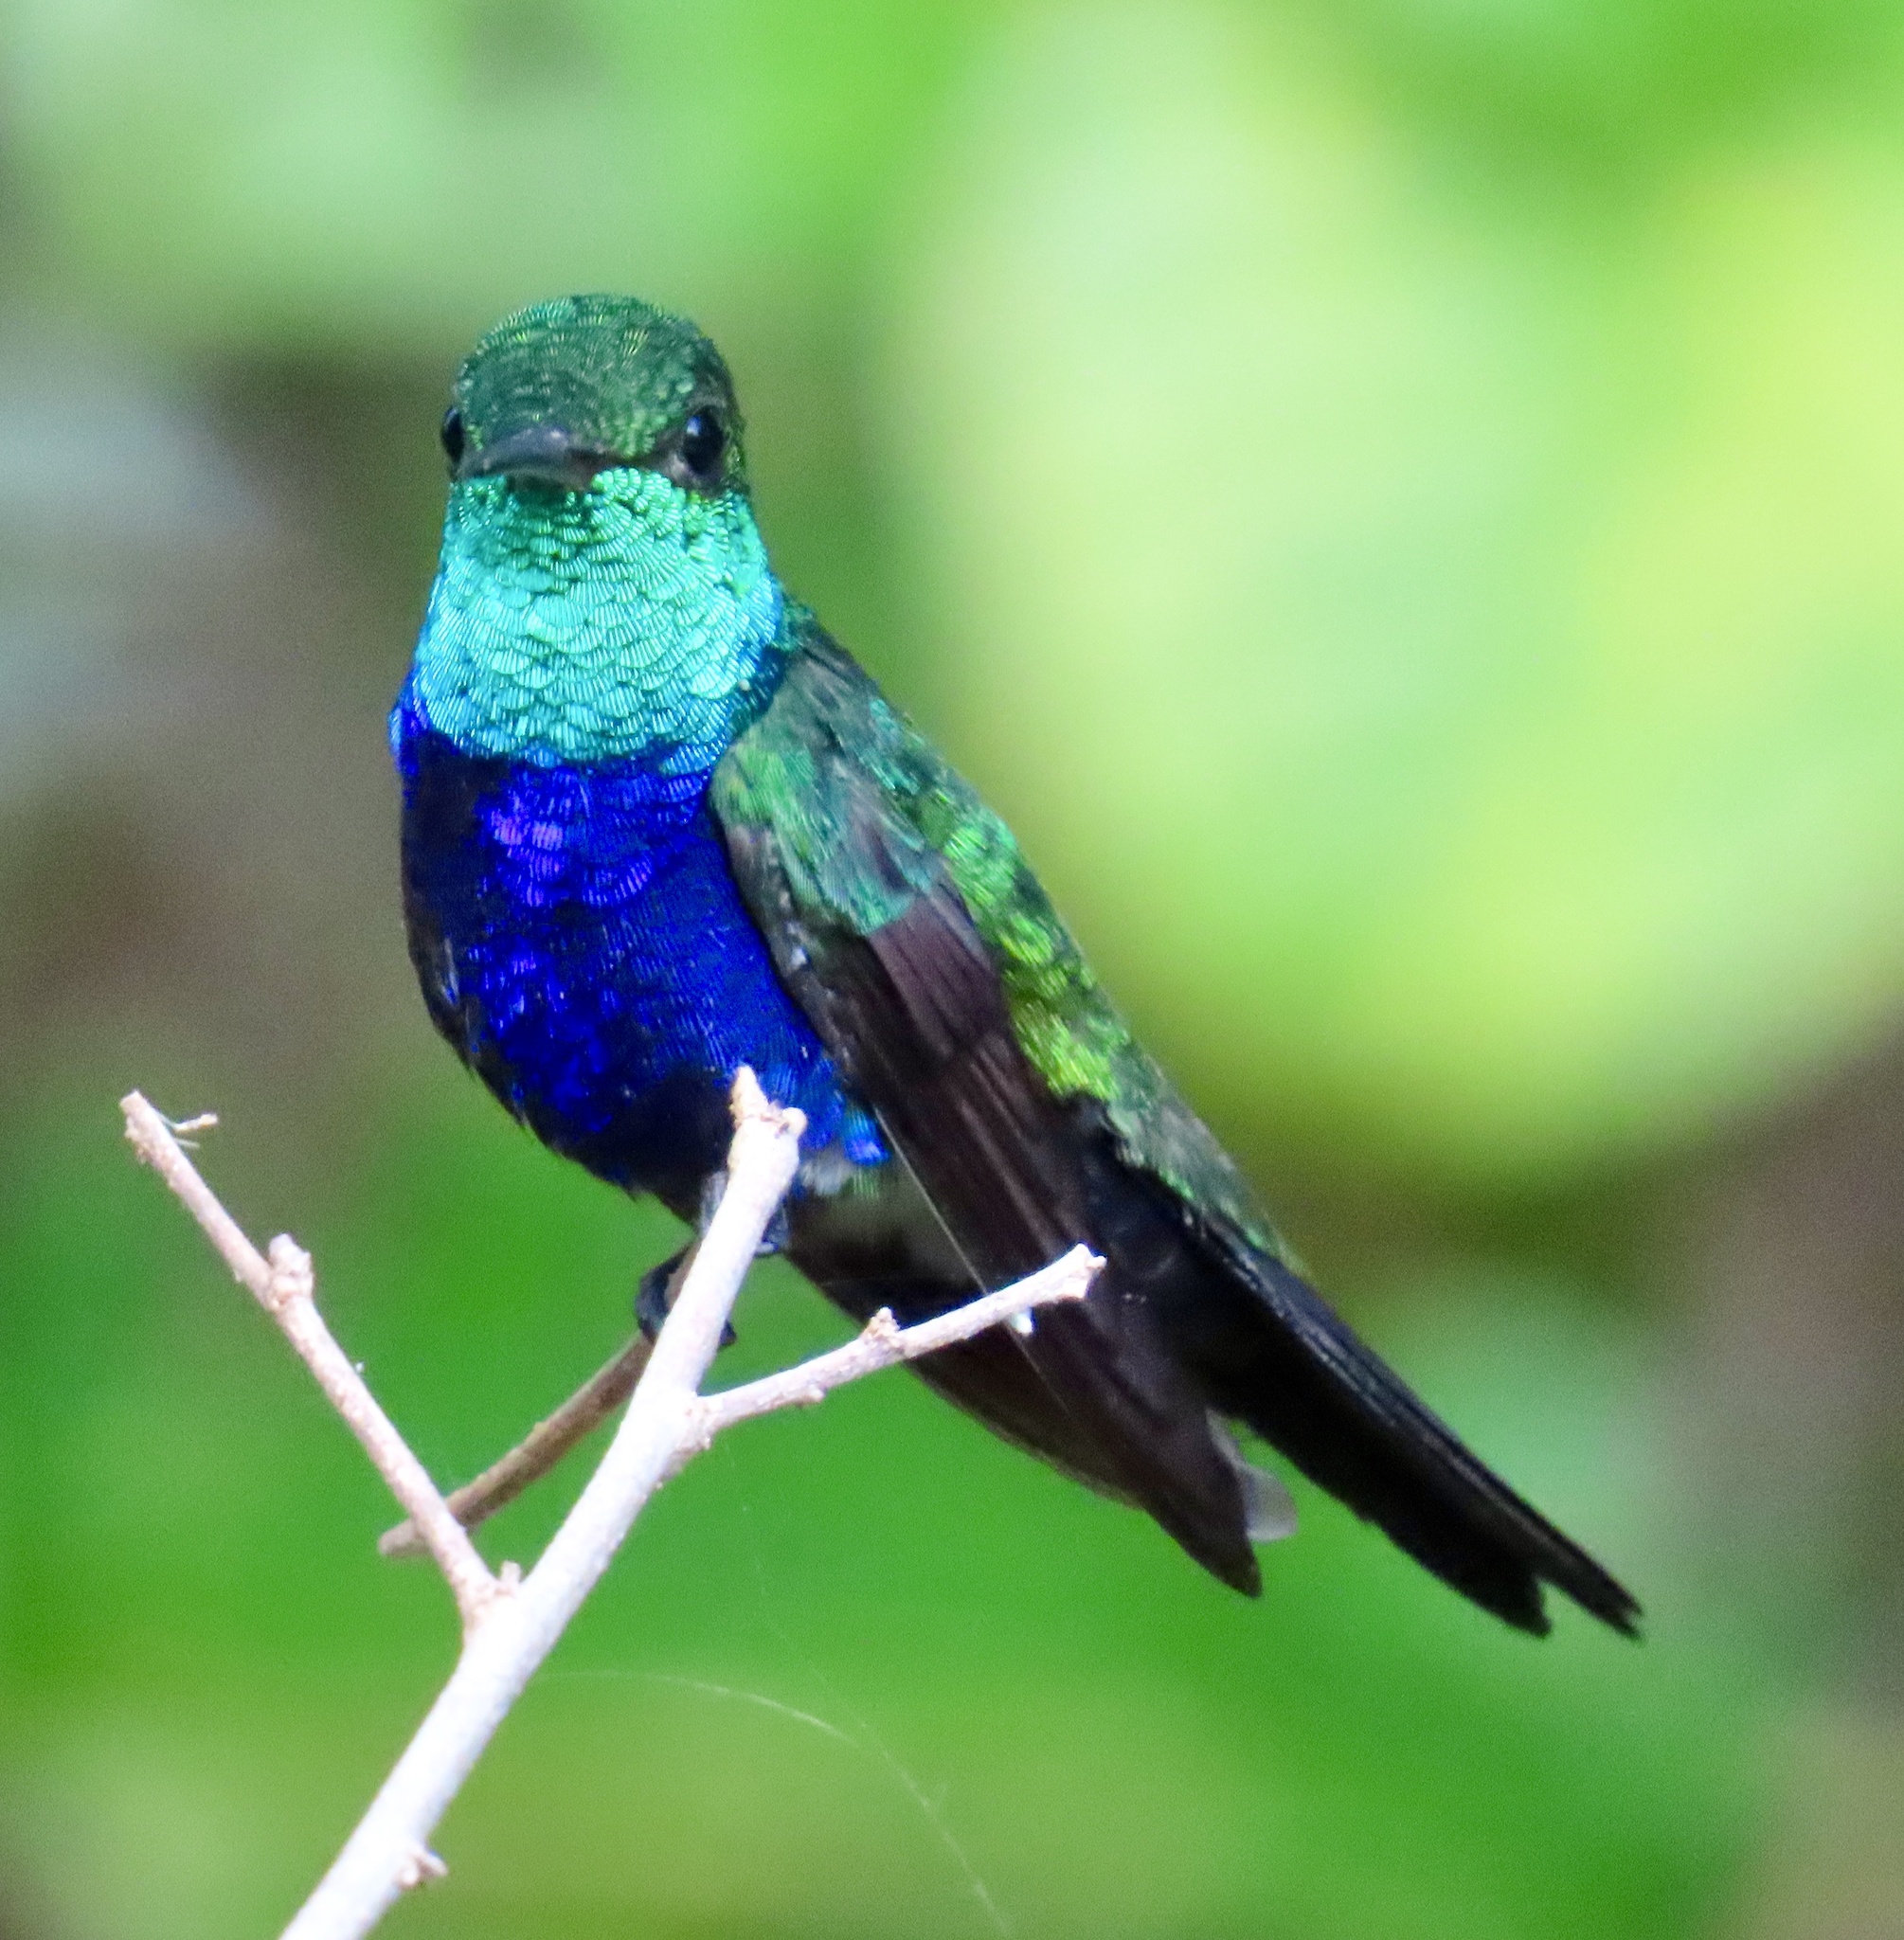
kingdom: Animalia
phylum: Chordata
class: Aves
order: Apodiformes
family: Trochilidae
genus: Chlorestes
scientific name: Chlorestes julie
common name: Violet-bellied hummingbird
